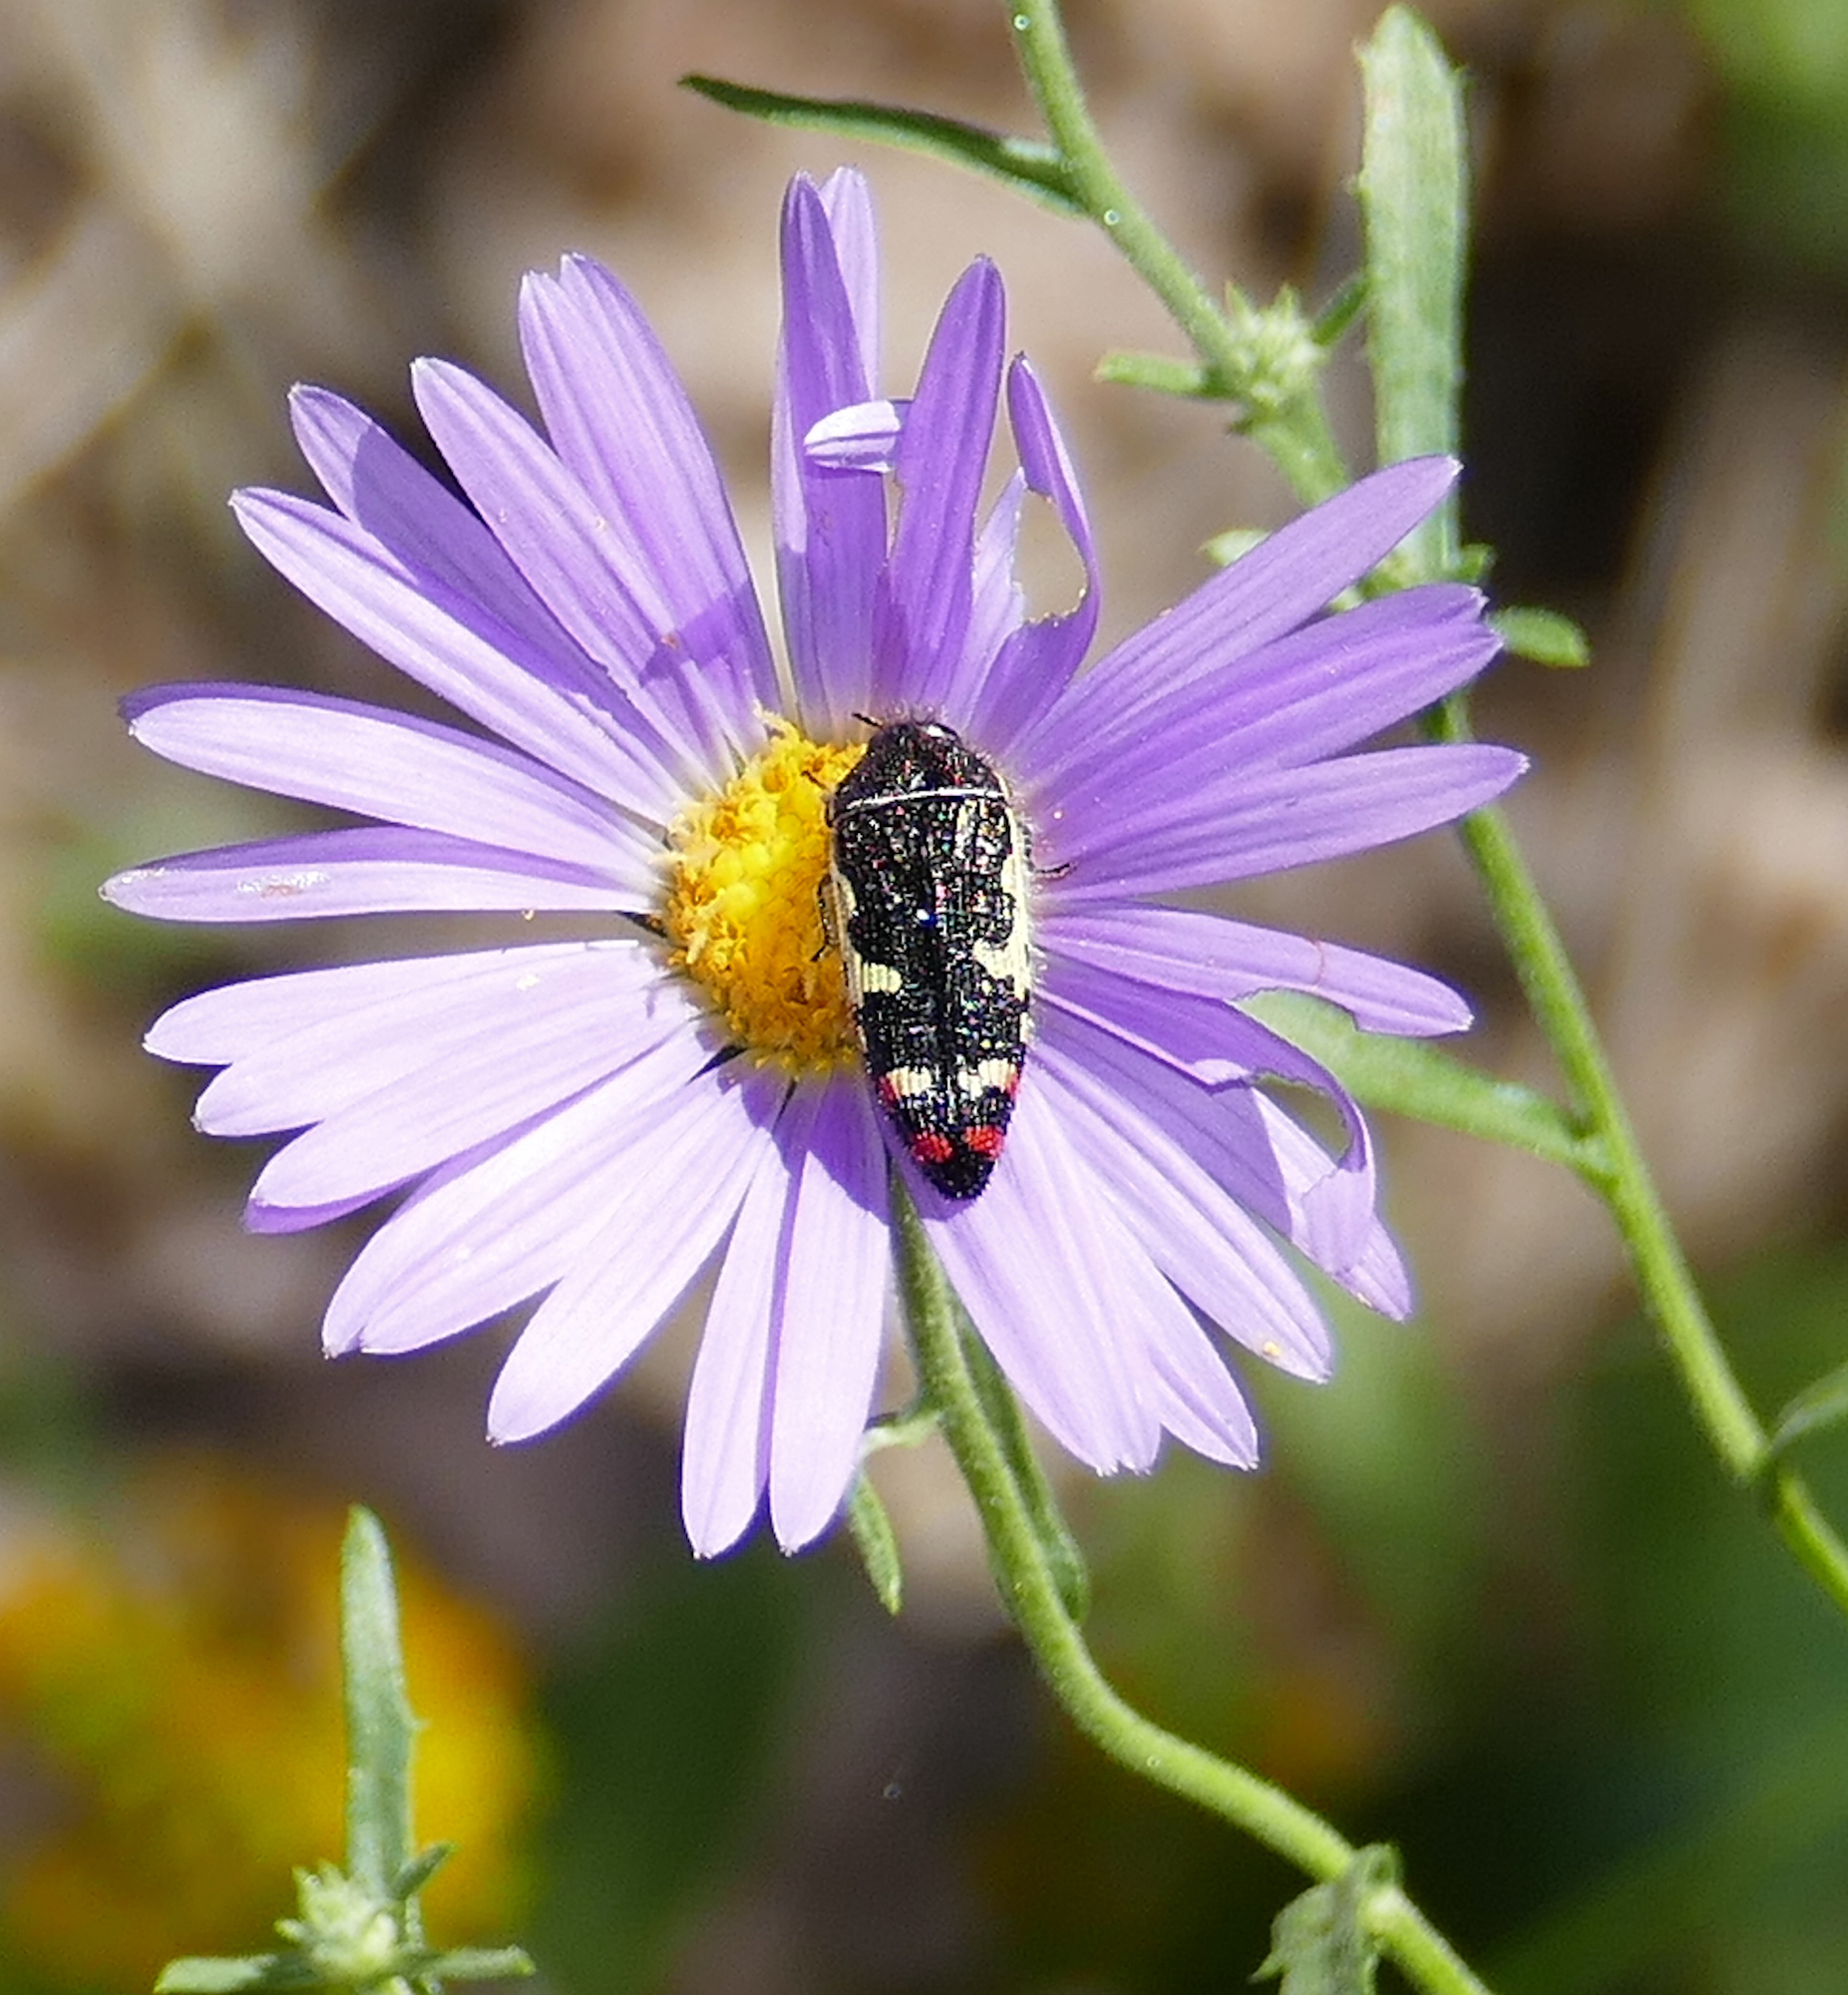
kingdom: Animalia
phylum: Arthropoda
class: Insecta
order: Coleoptera
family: Buprestidae
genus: Acmaeodera
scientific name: Acmaeodera amabilis
